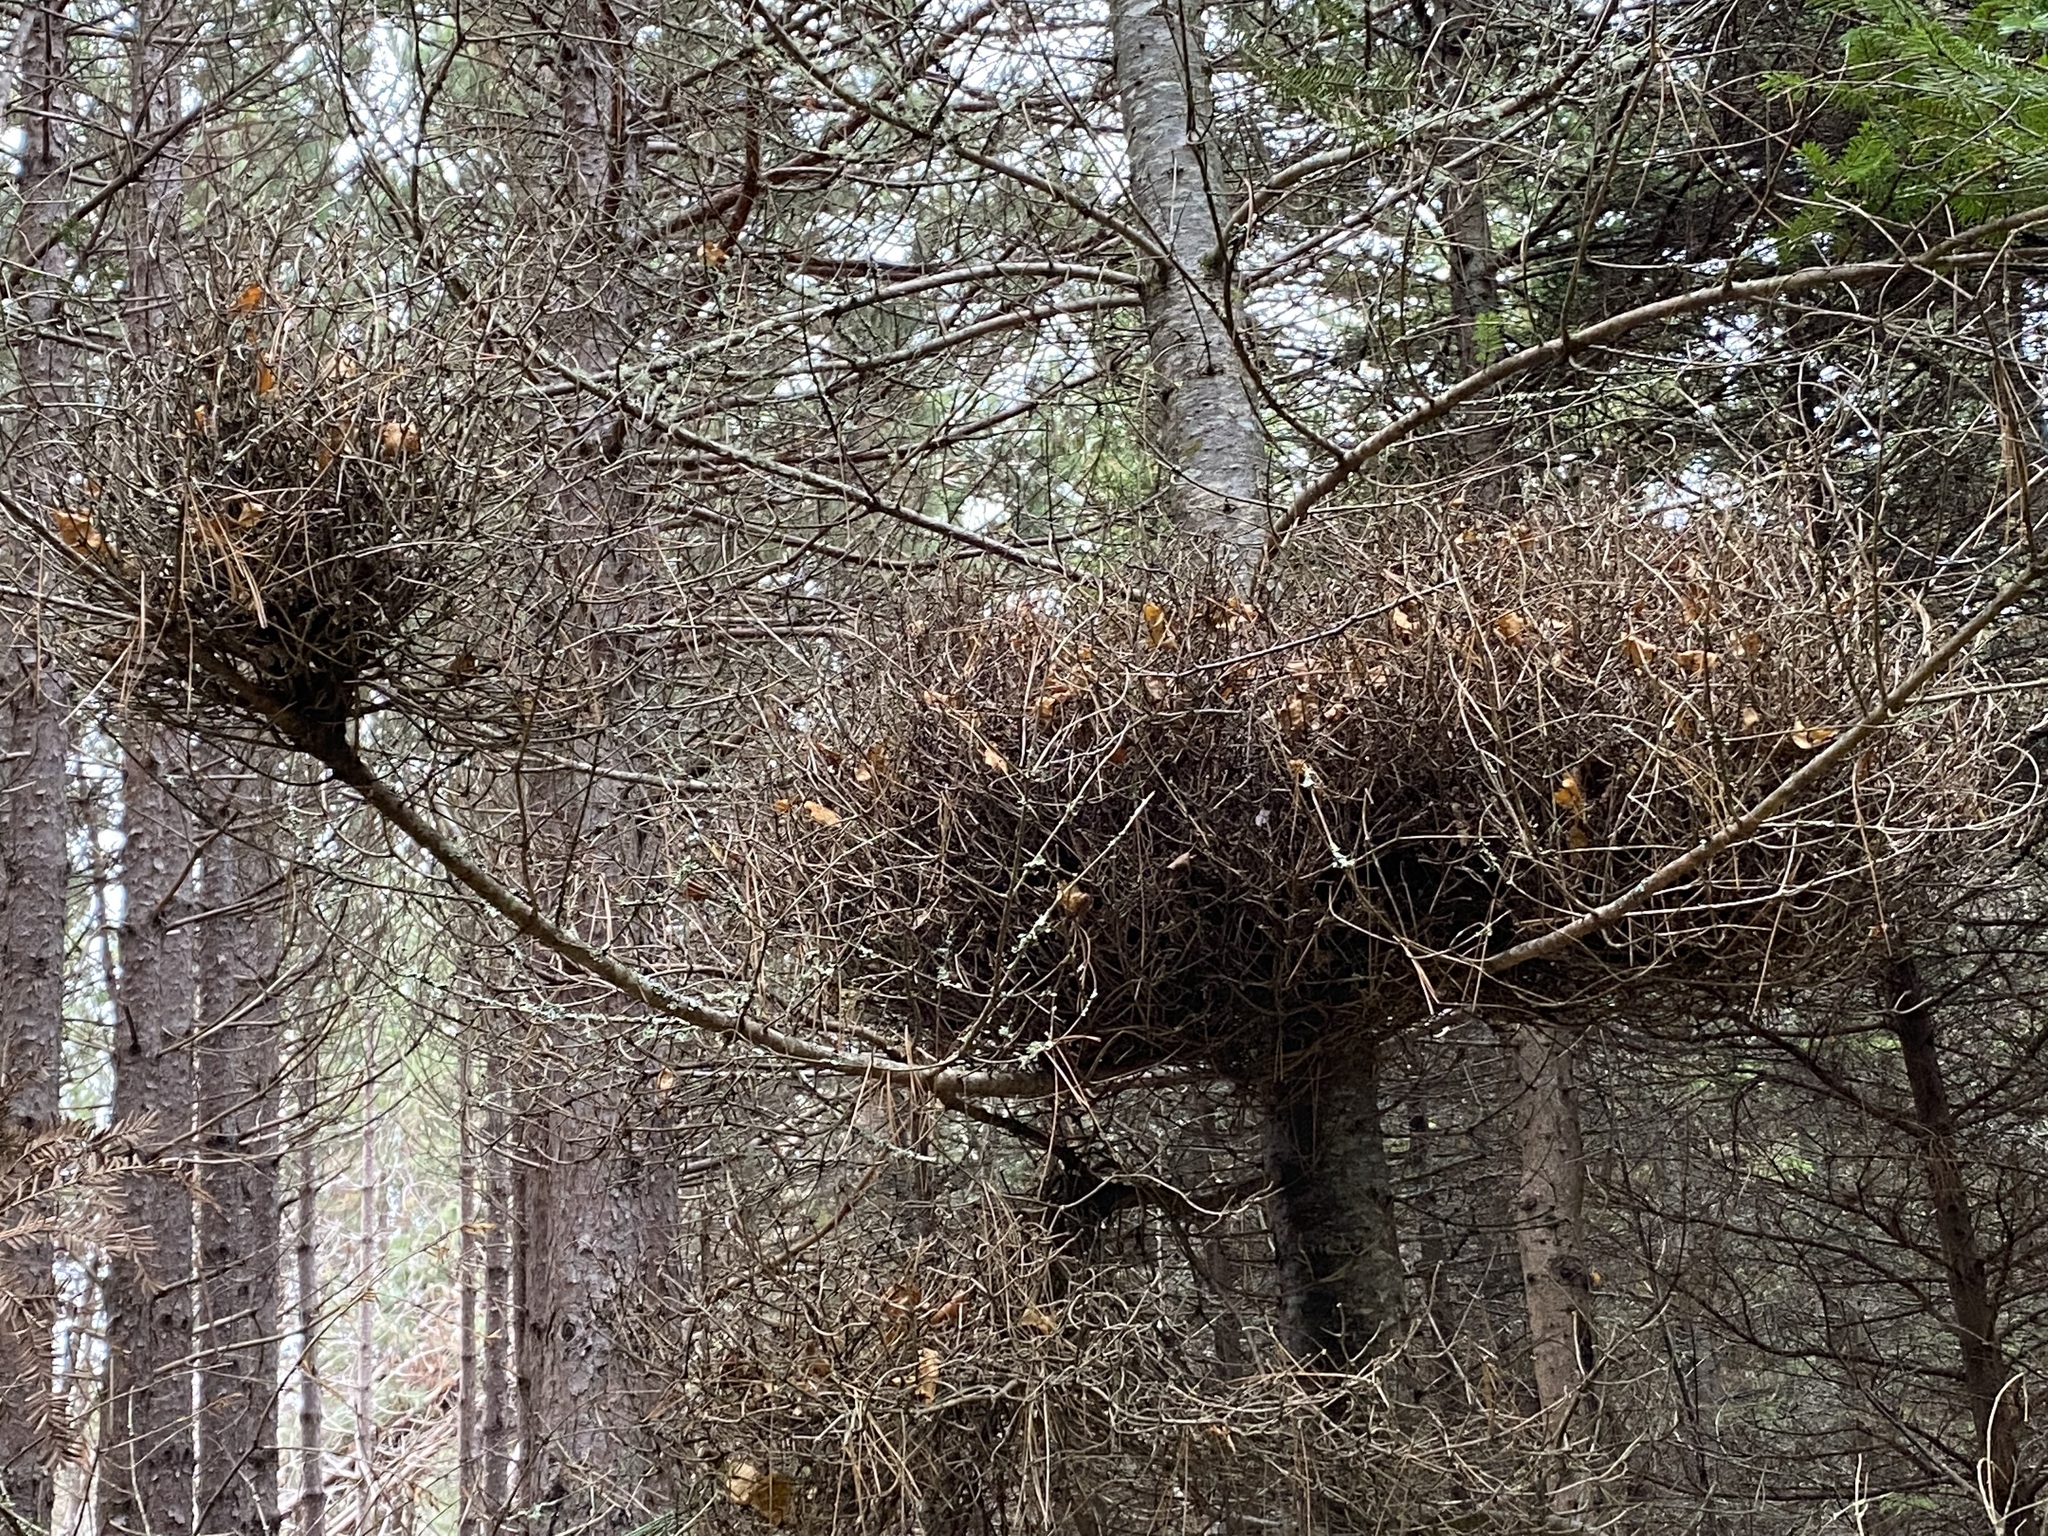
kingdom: Fungi
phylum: Basidiomycota
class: Pucciniomycetes
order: Pucciniales
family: Pucciniastraceae
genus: Melampsorella
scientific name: Melampsorella elatina
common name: Fir broom rust
